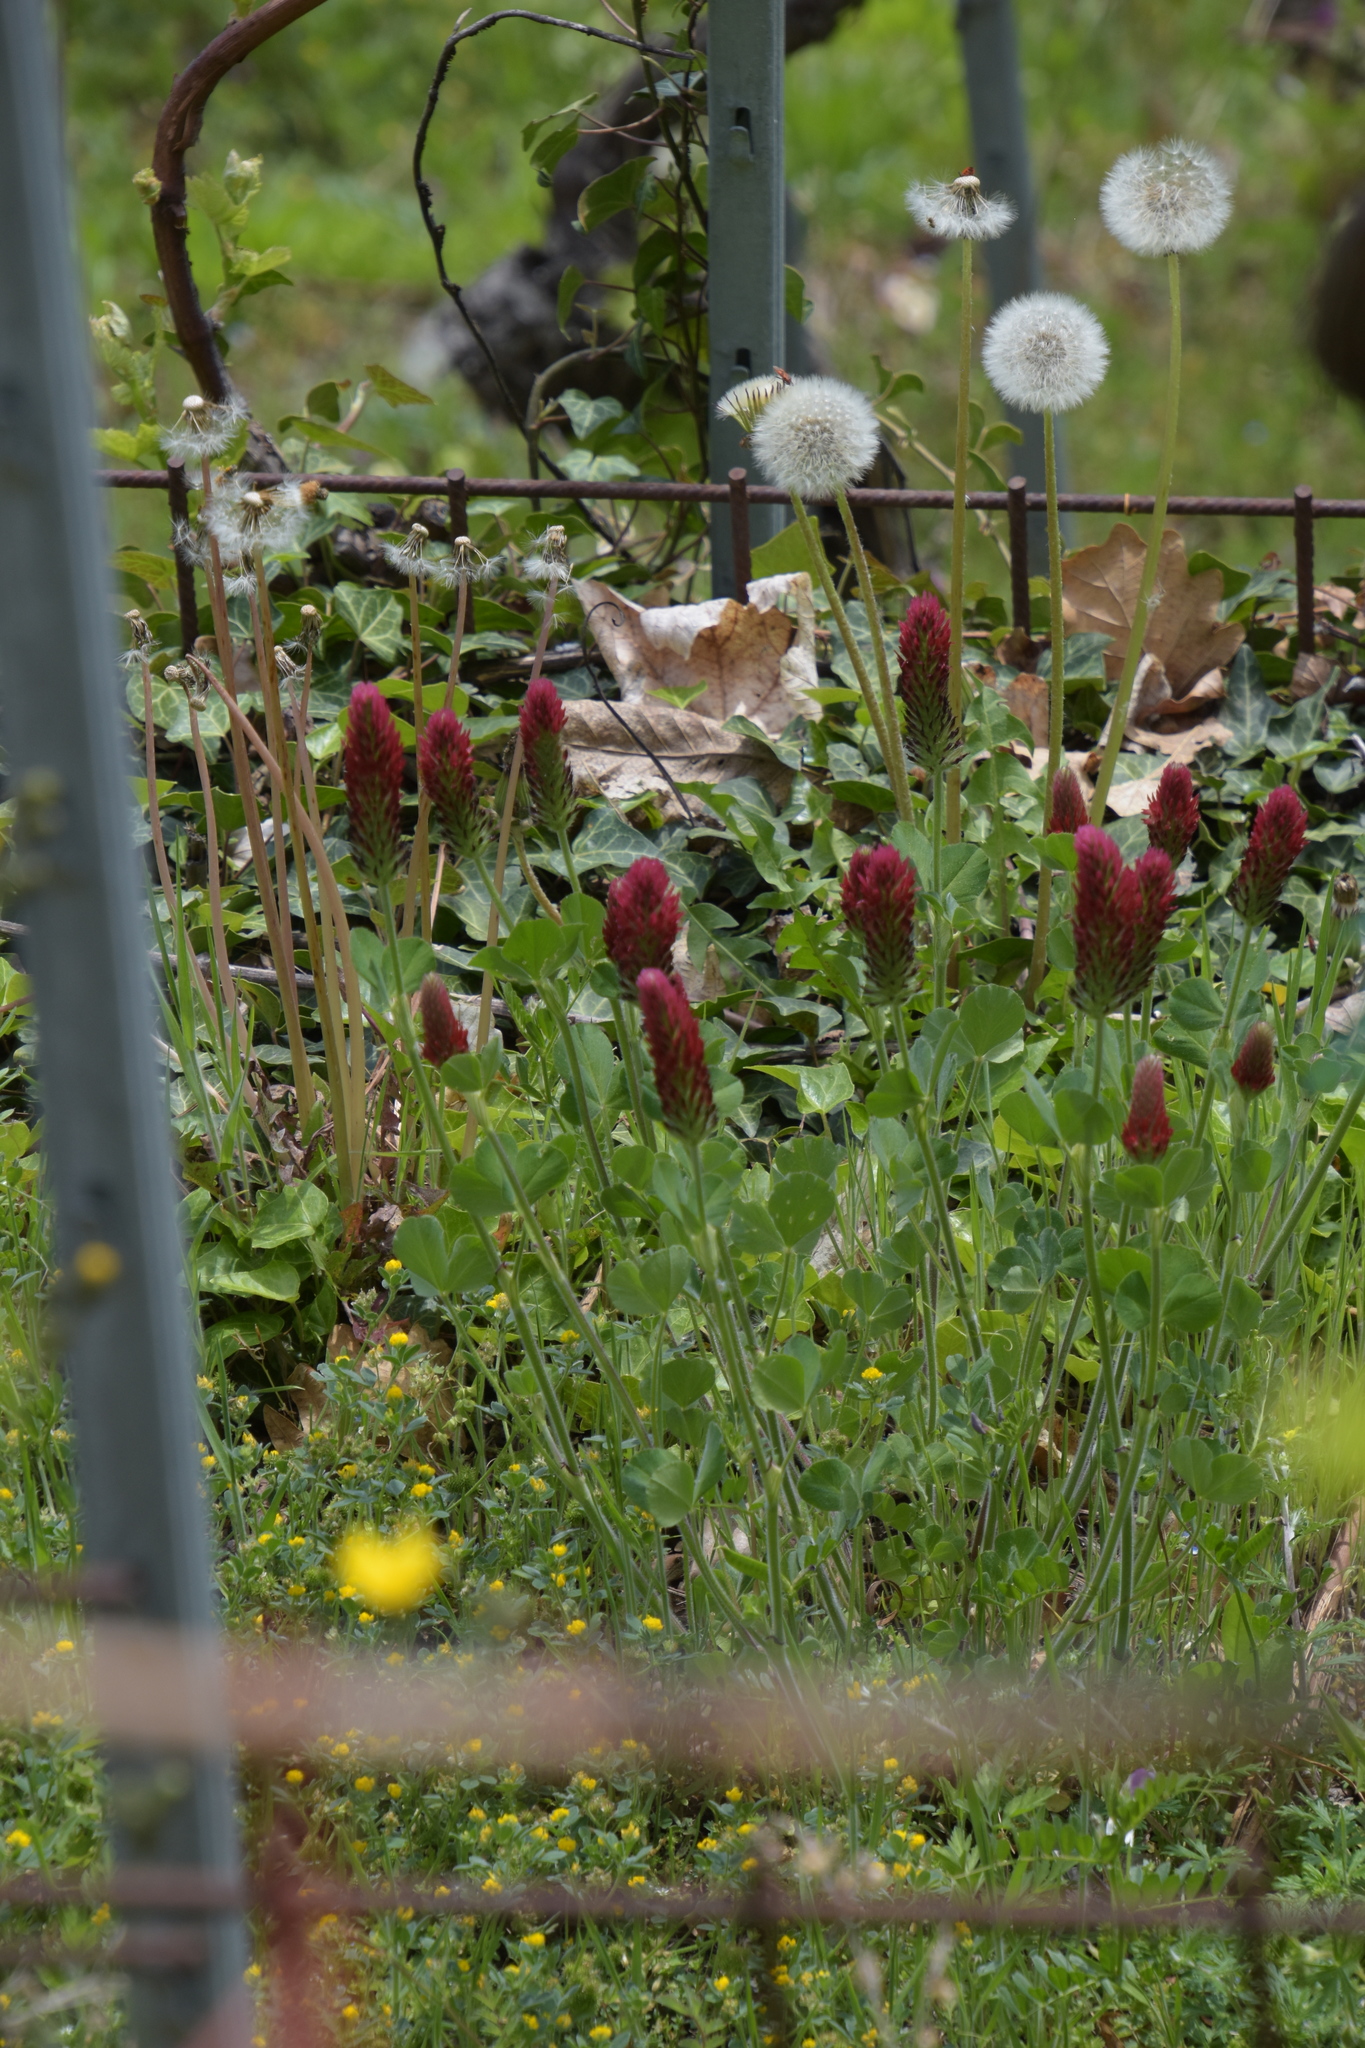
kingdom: Plantae
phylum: Tracheophyta
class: Magnoliopsida
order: Fabales
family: Fabaceae
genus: Trifolium
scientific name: Trifolium incarnatum
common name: Crimson clover
